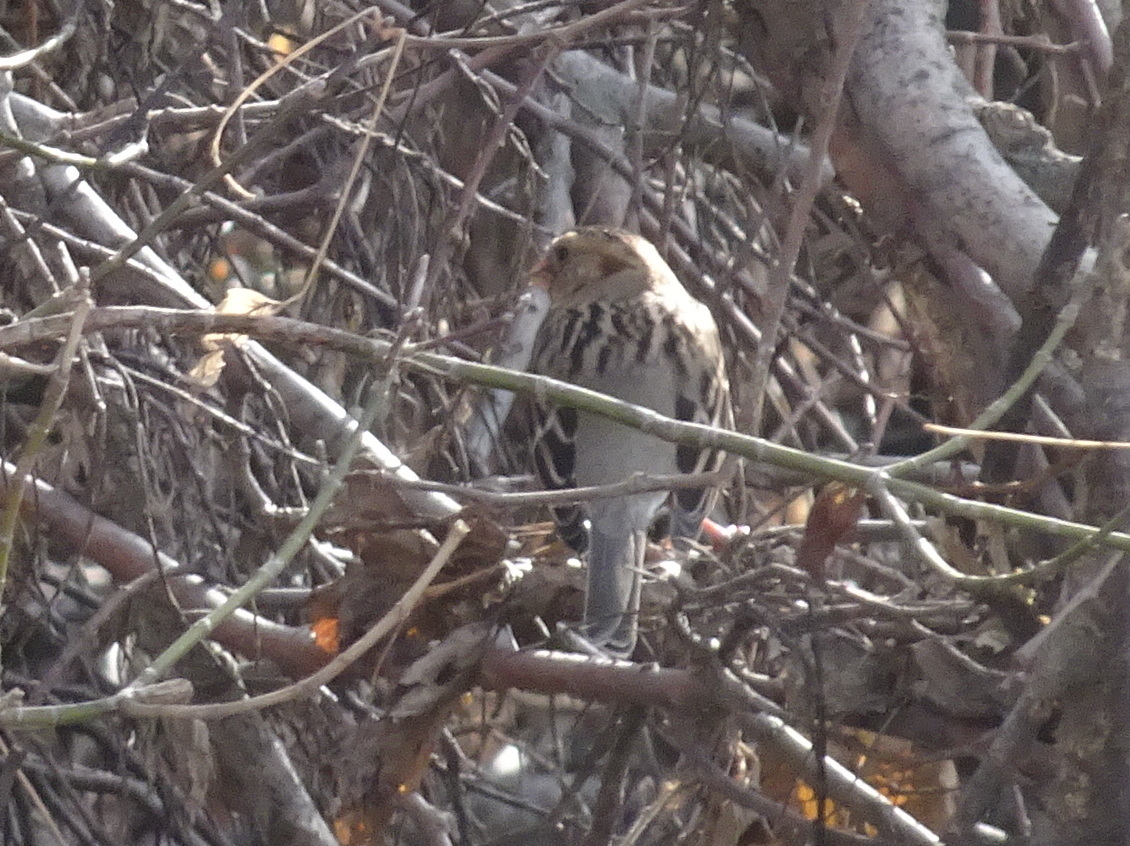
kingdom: Animalia
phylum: Chordata
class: Aves
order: Passeriformes
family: Passerellidae
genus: Zonotrichia
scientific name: Zonotrichia querula
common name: Harris's sparrow
